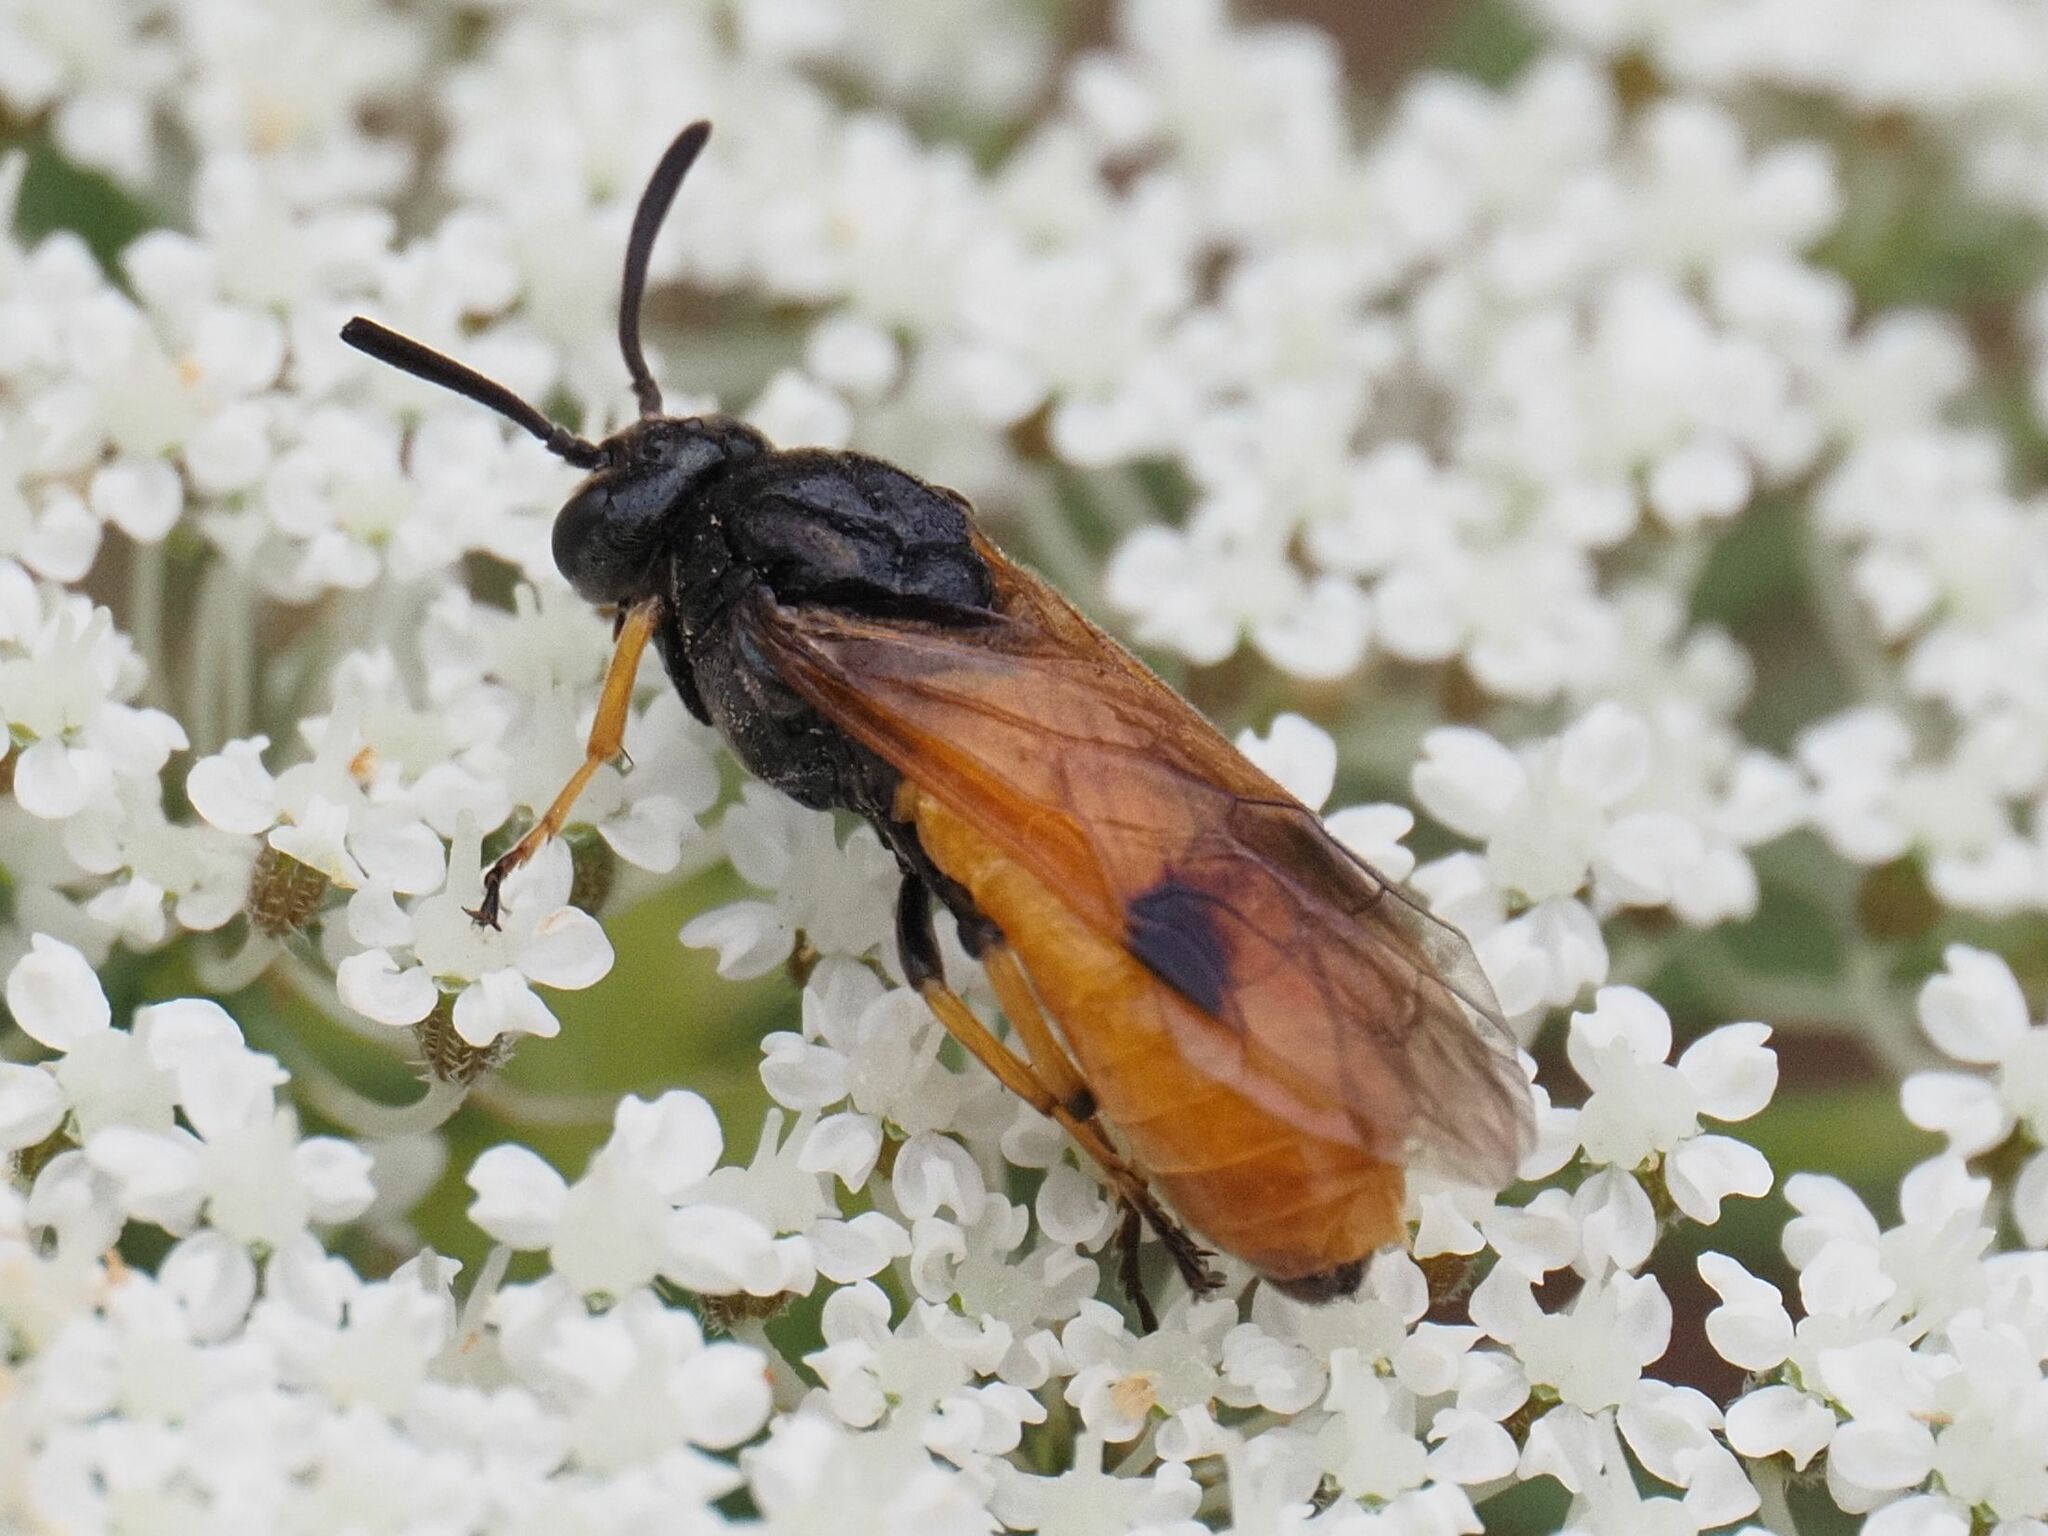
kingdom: Animalia
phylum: Arthropoda
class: Insecta
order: Hymenoptera
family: Argidae
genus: Arge
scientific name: Arge melanochra
